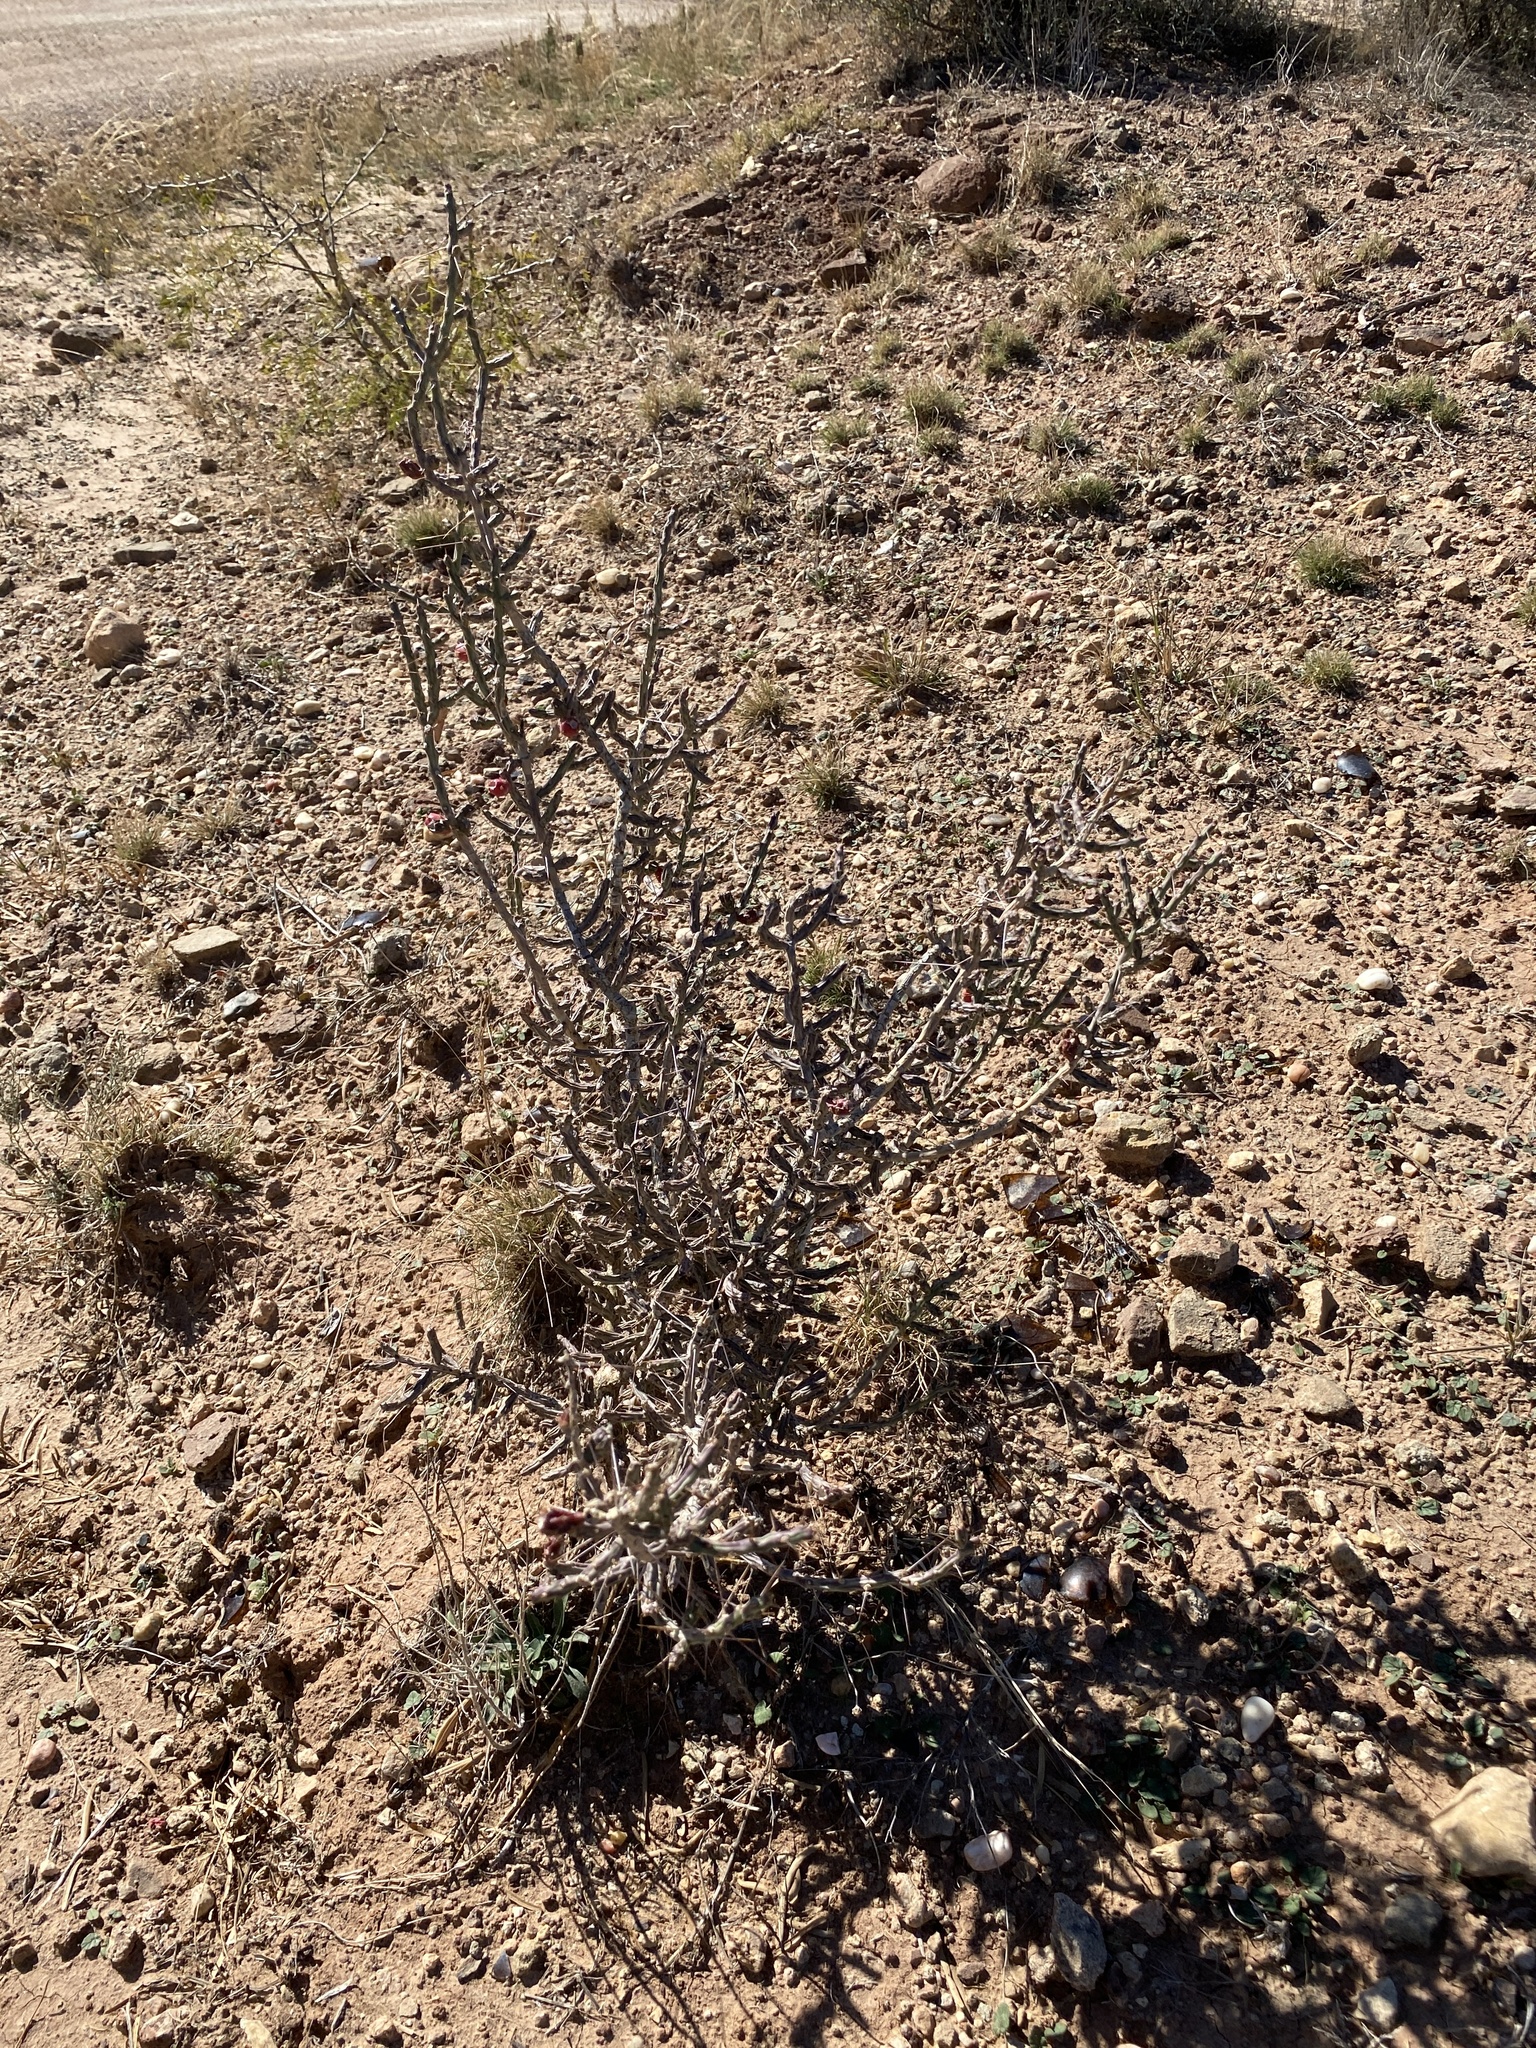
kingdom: Plantae
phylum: Tracheophyta
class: Magnoliopsida
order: Caryophyllales
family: Cactaceae
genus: Cylindropuntia
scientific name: Cylindropuntia leptocaulis
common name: Christmas cactus
